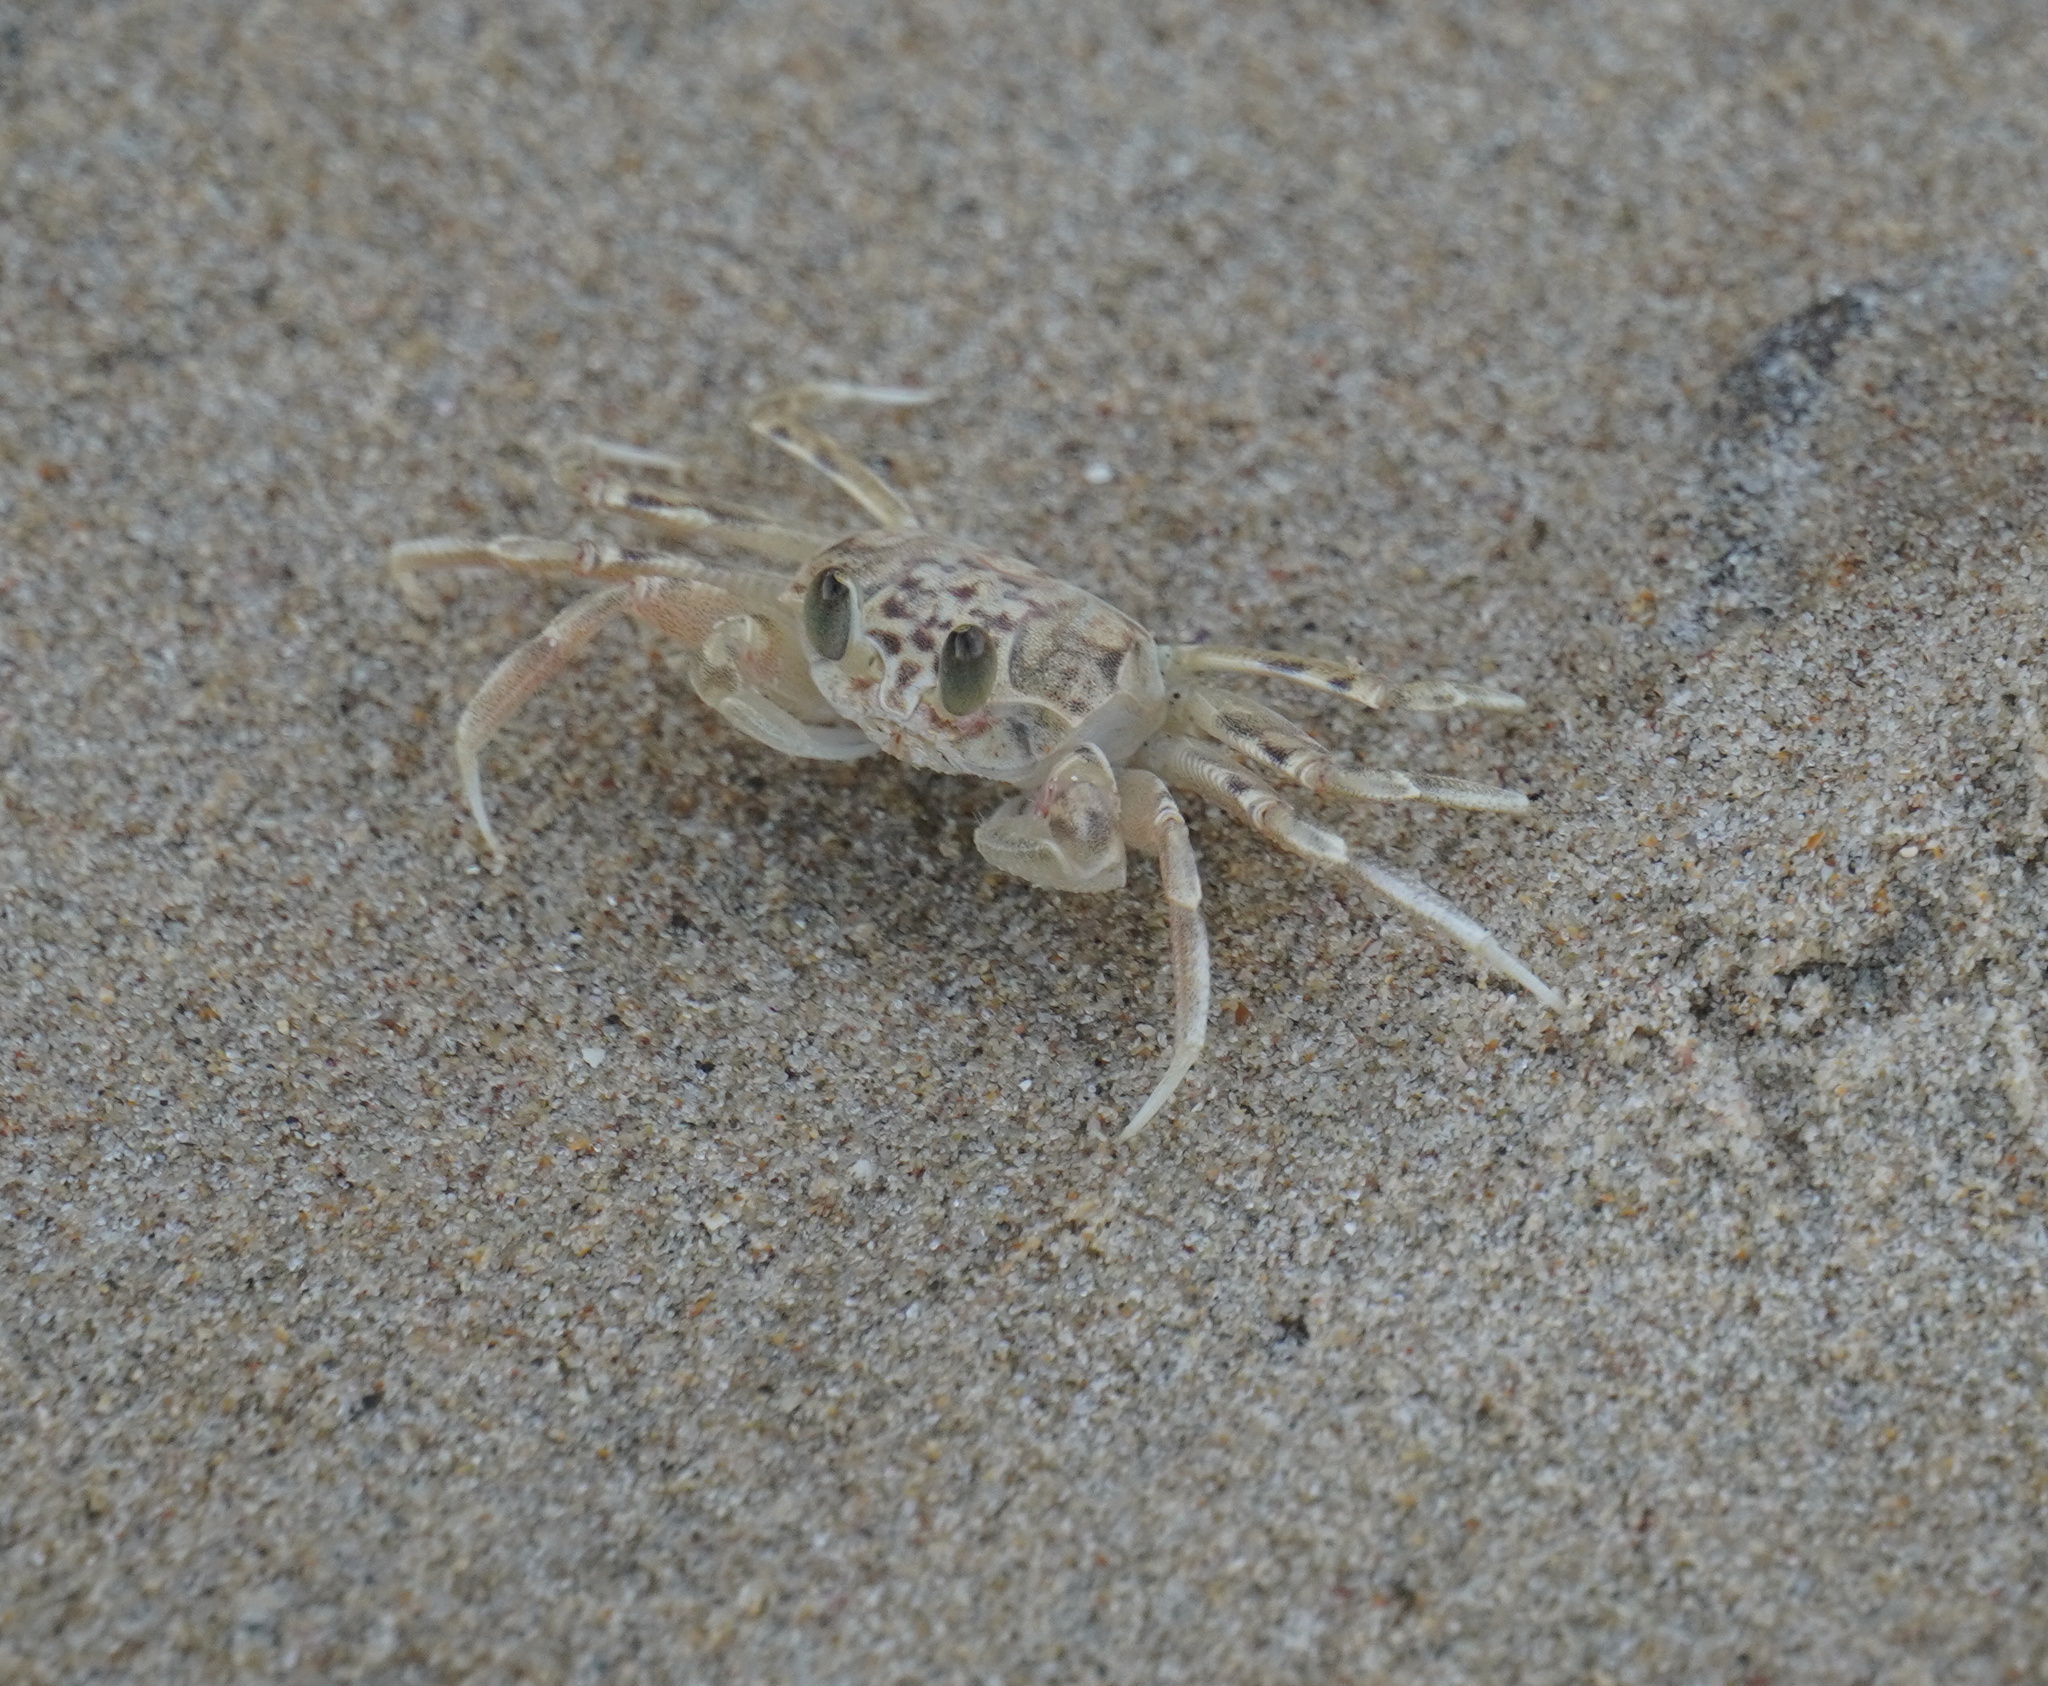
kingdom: Animalia
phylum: Arthropoda
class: Malacostraca
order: Decapoda
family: Ocypodidae
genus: Ocypode
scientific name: Ocypode
